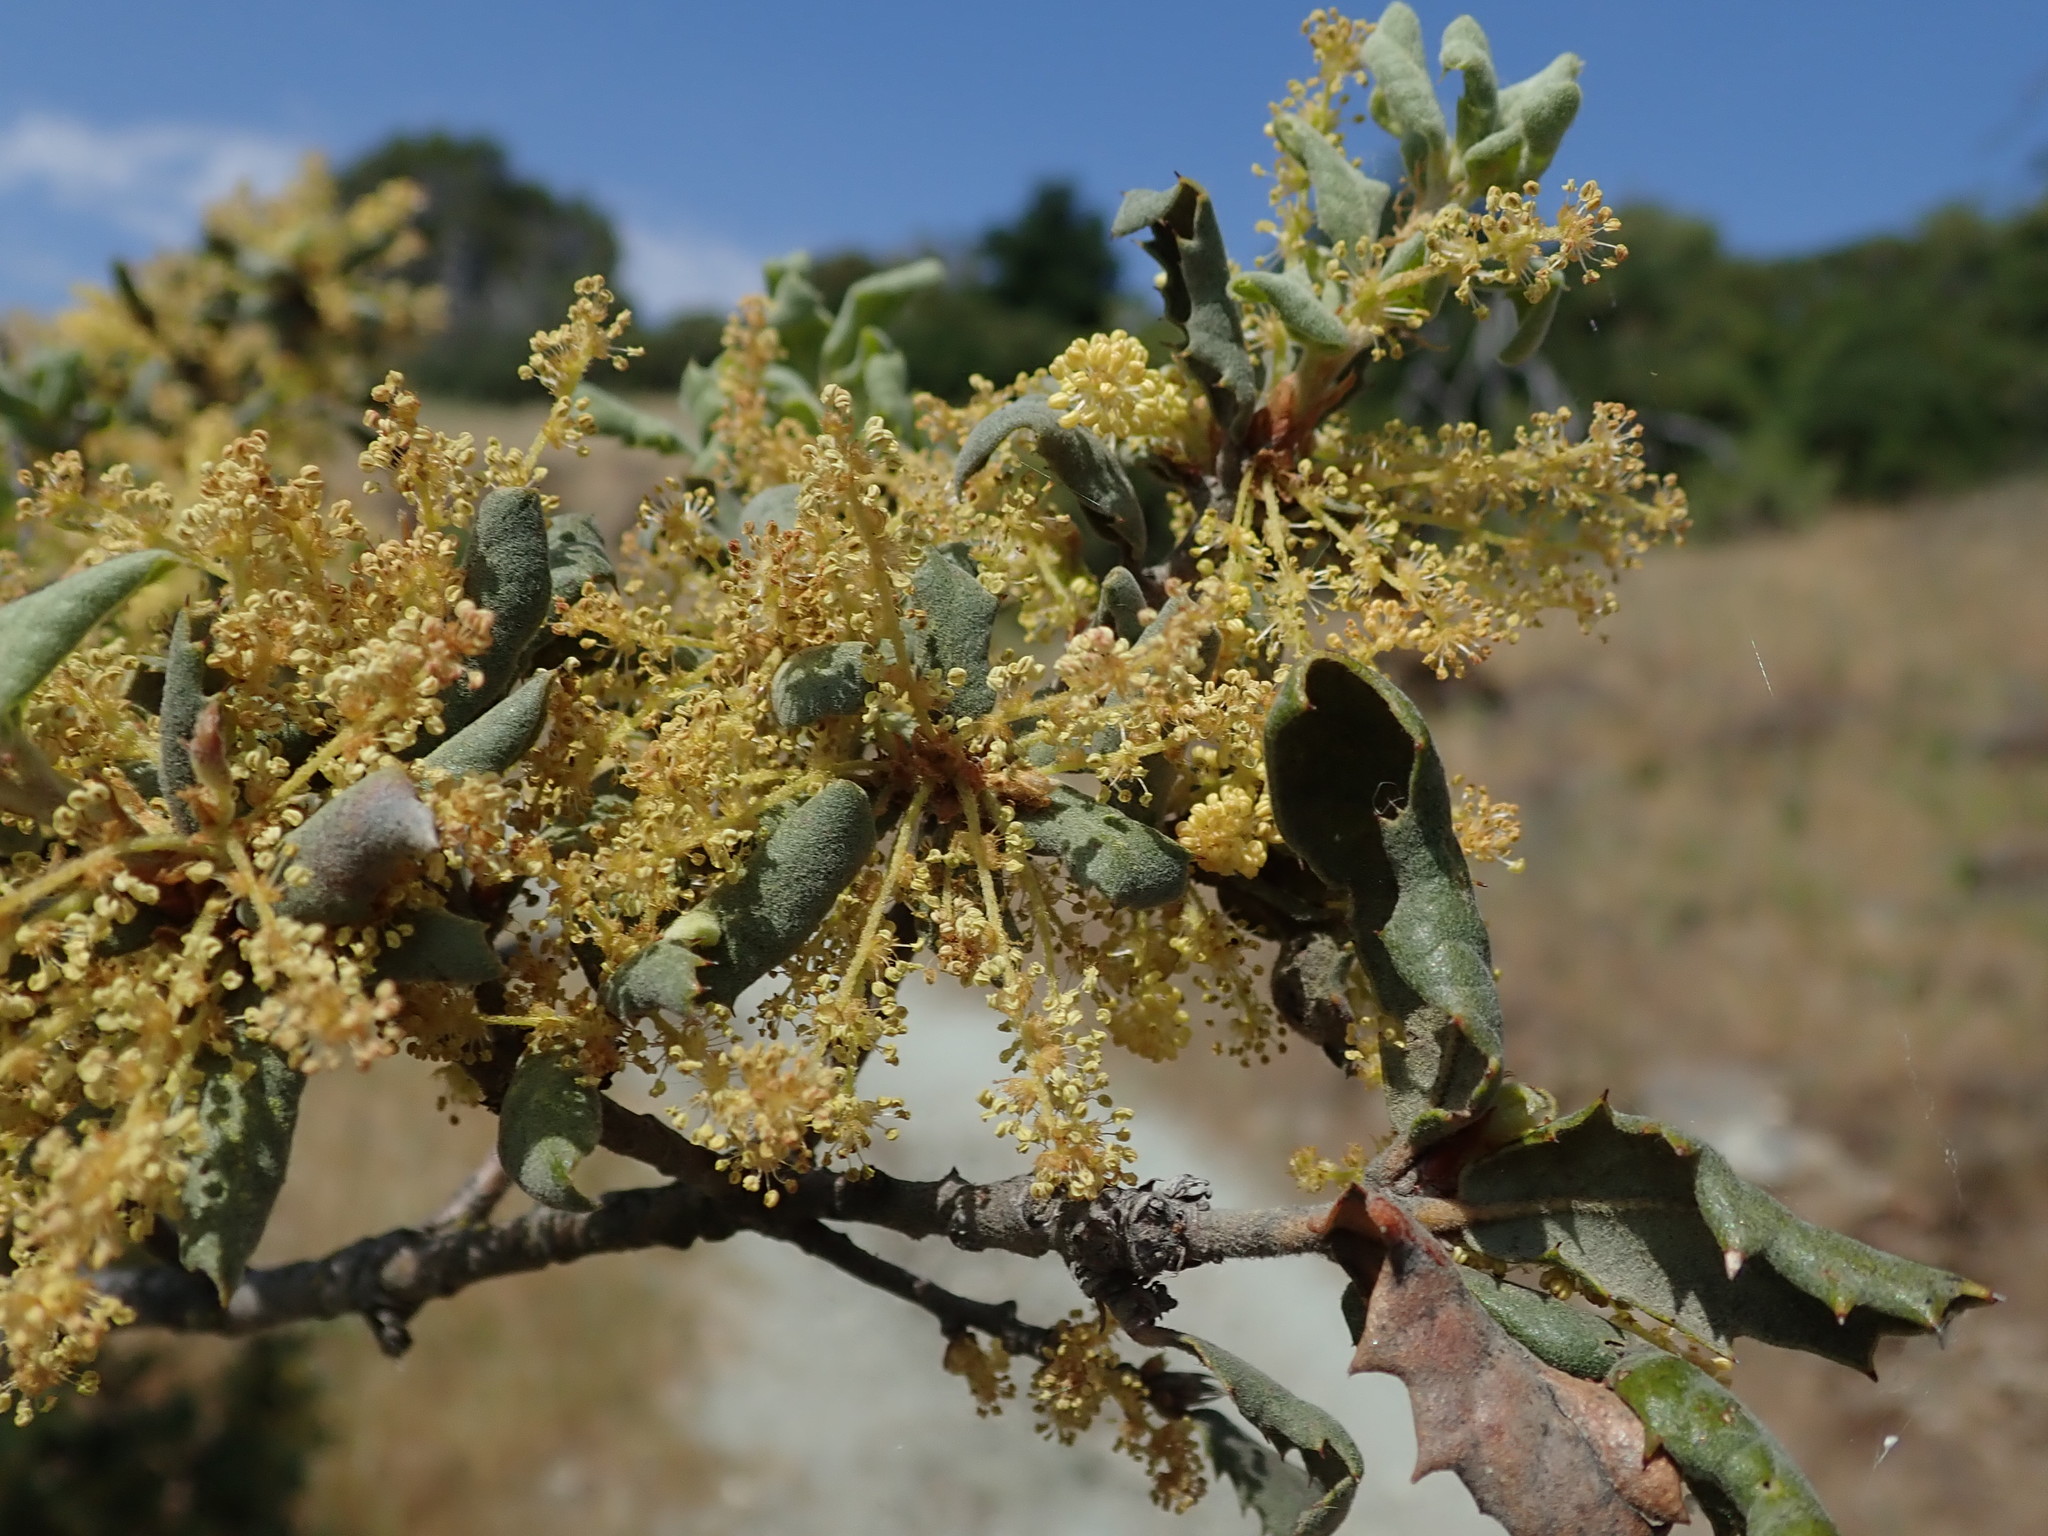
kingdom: Plantae
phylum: Tracheophyta
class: Magnoliopsida
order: Fagales
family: Fagaceae
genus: Quercus
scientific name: Quercus durata
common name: Leather oak
